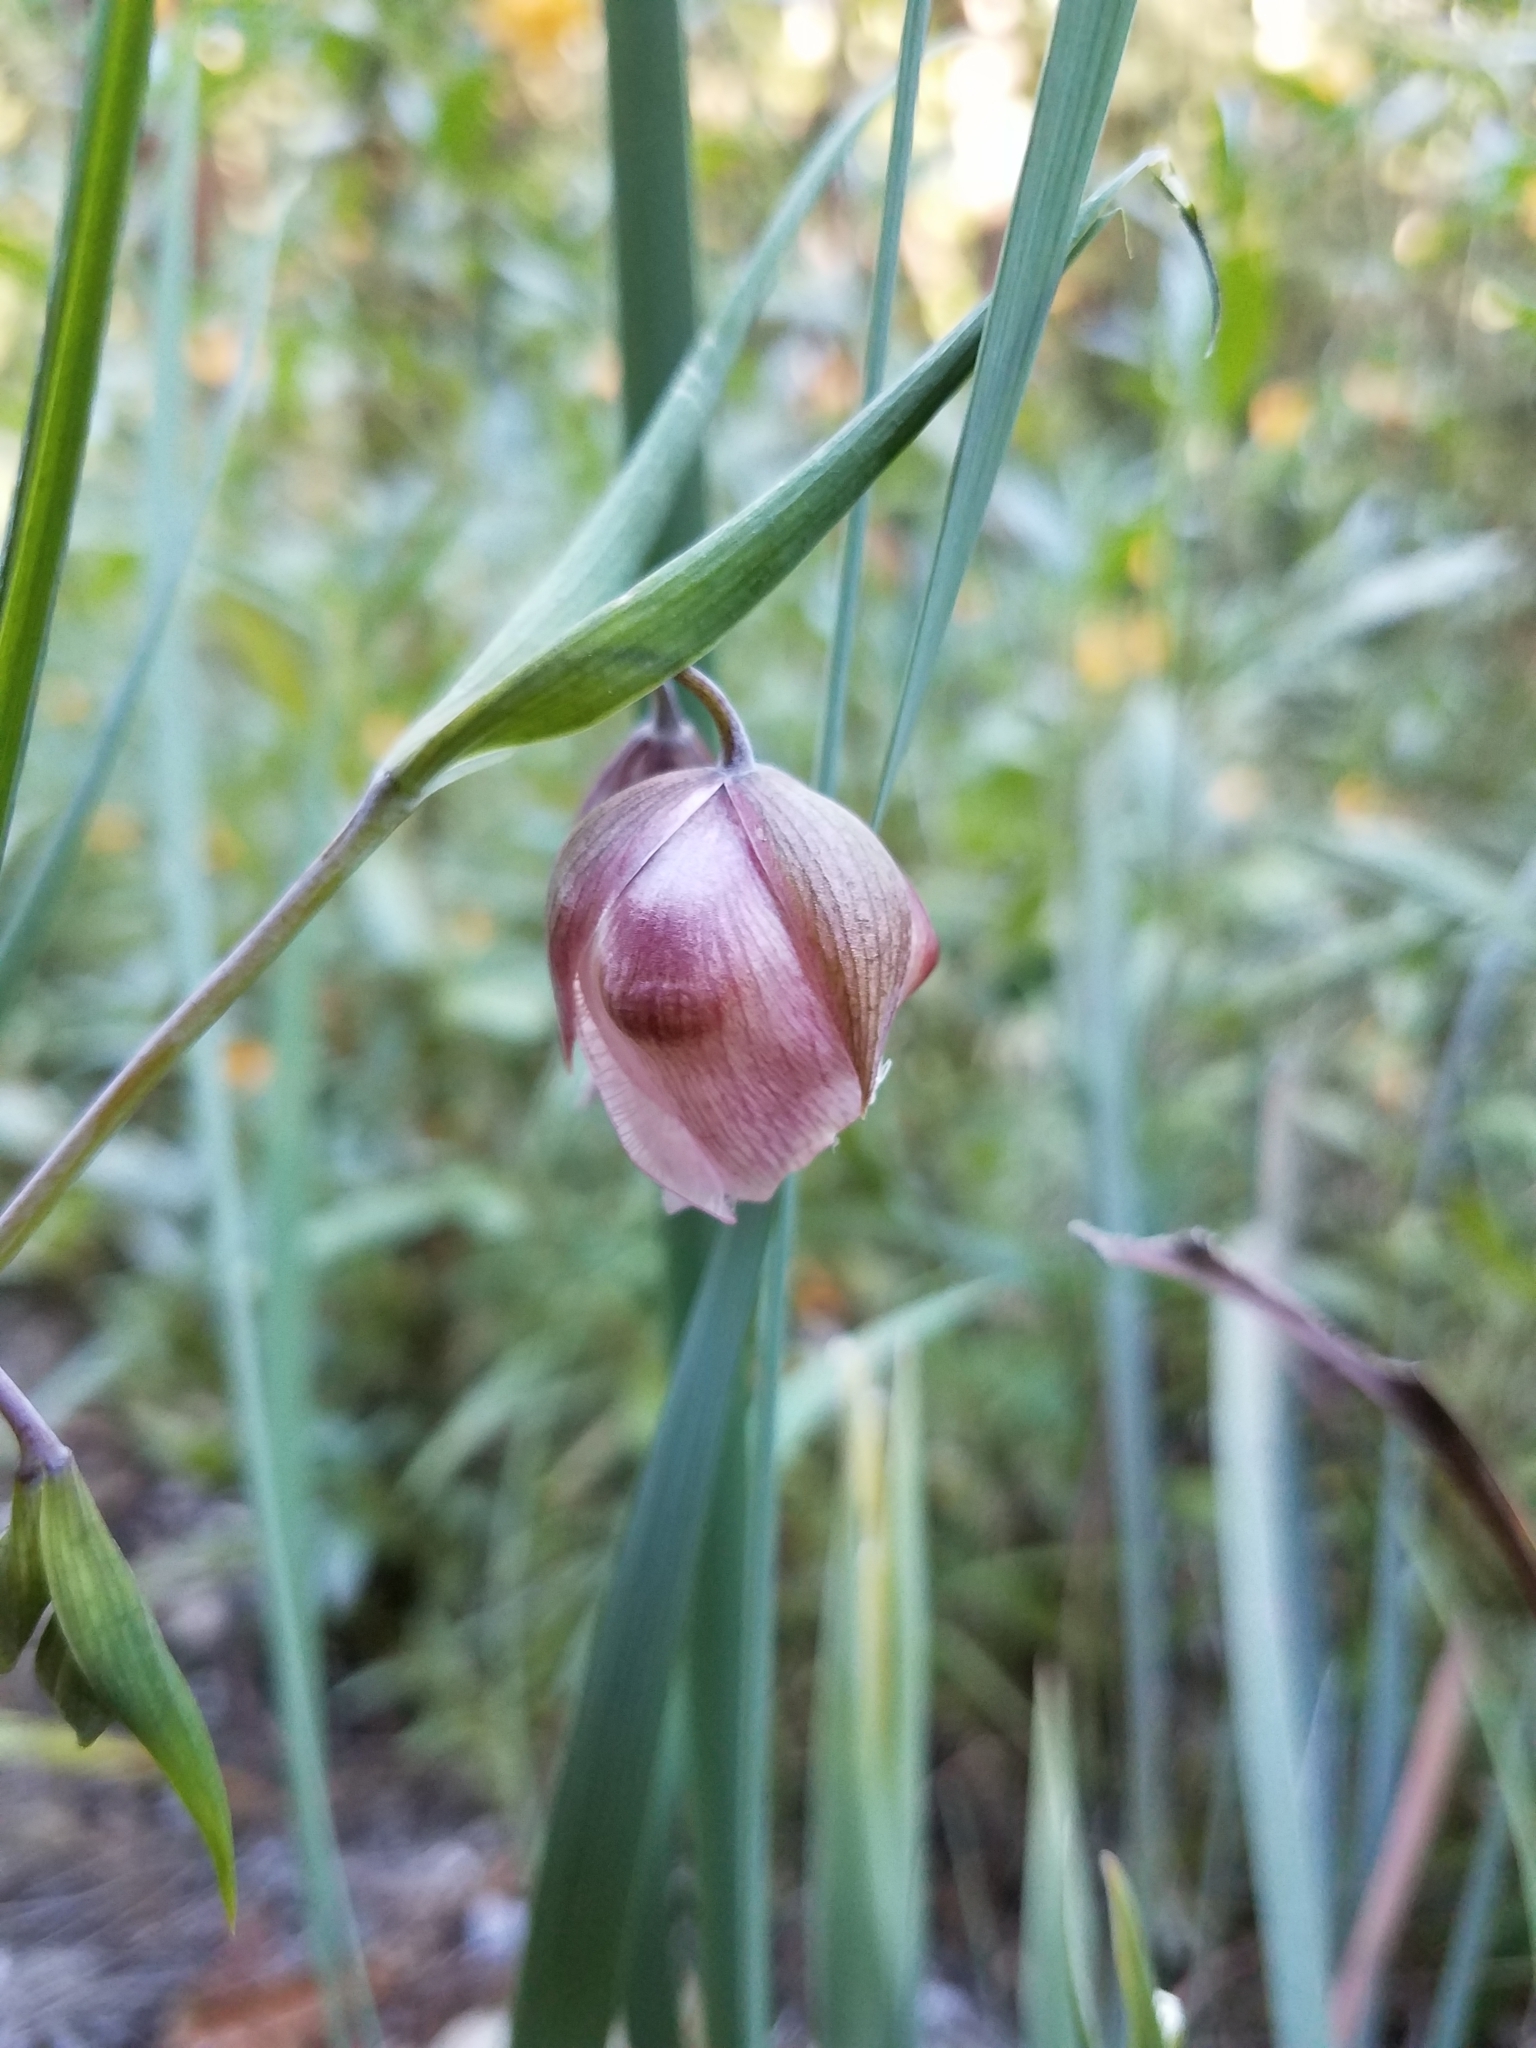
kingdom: Plantae
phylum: Tracheophyta
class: Liliopsida
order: Liliales
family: Liliaceae
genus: Calochortus
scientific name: Calochortus albus
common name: Fairy-lantern
